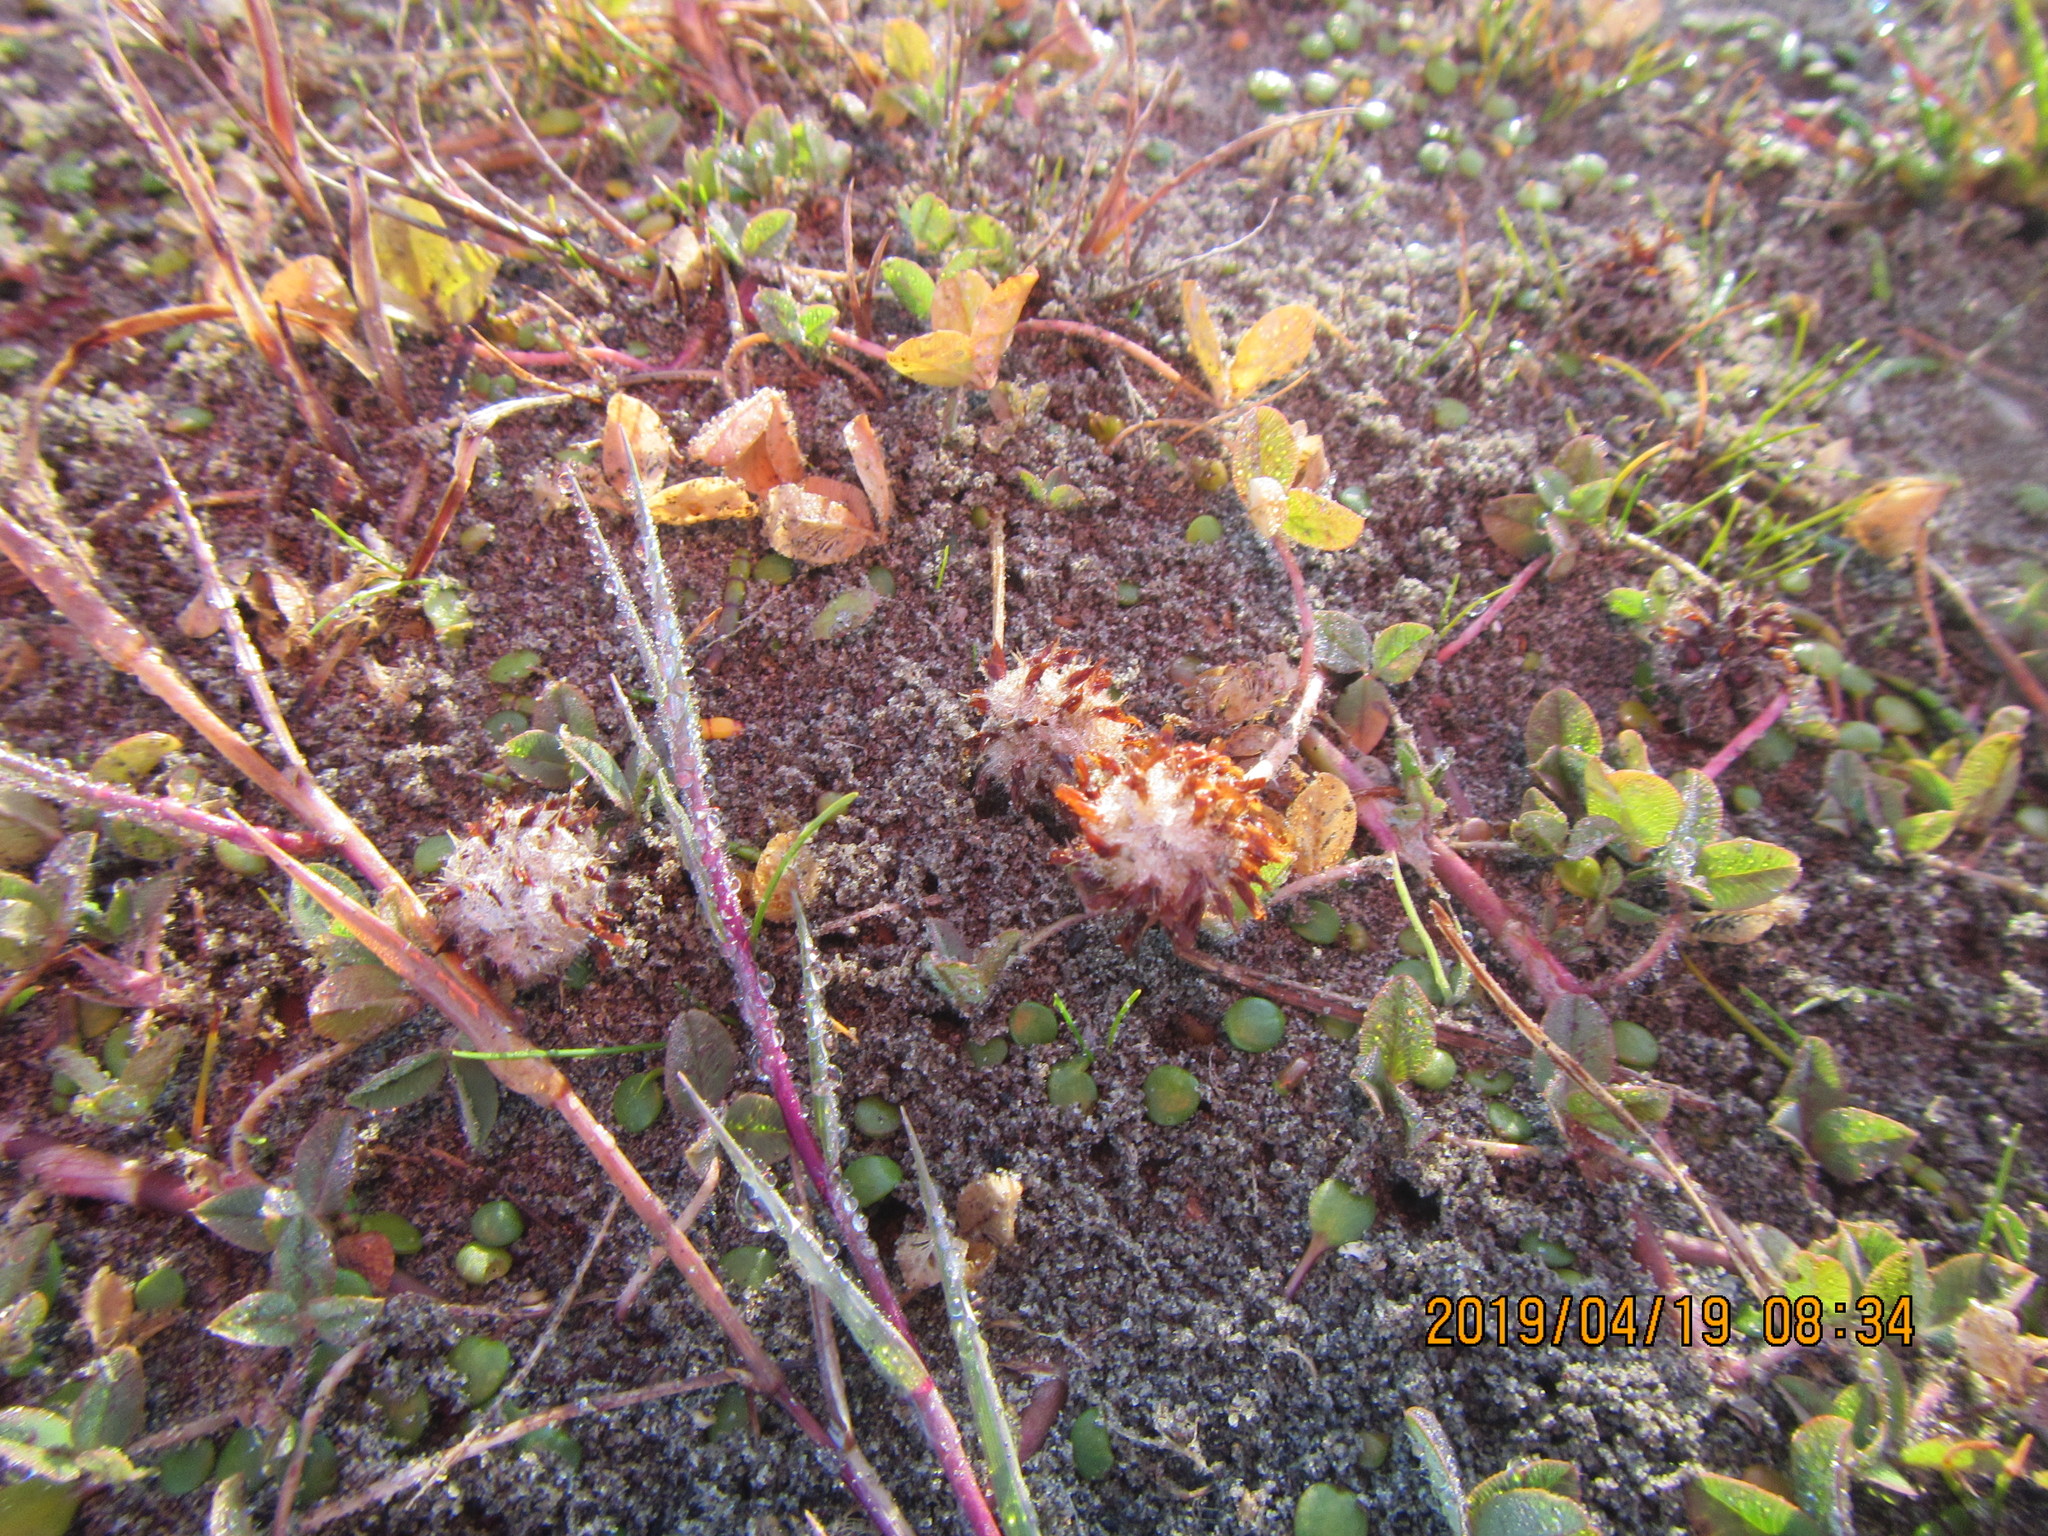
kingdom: Plantae
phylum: Tracheophyta
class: Magnoliopsida
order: Fabales
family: Fabaceae
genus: Trifolium
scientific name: Trifolium fragiferum
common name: Strawberry clover
